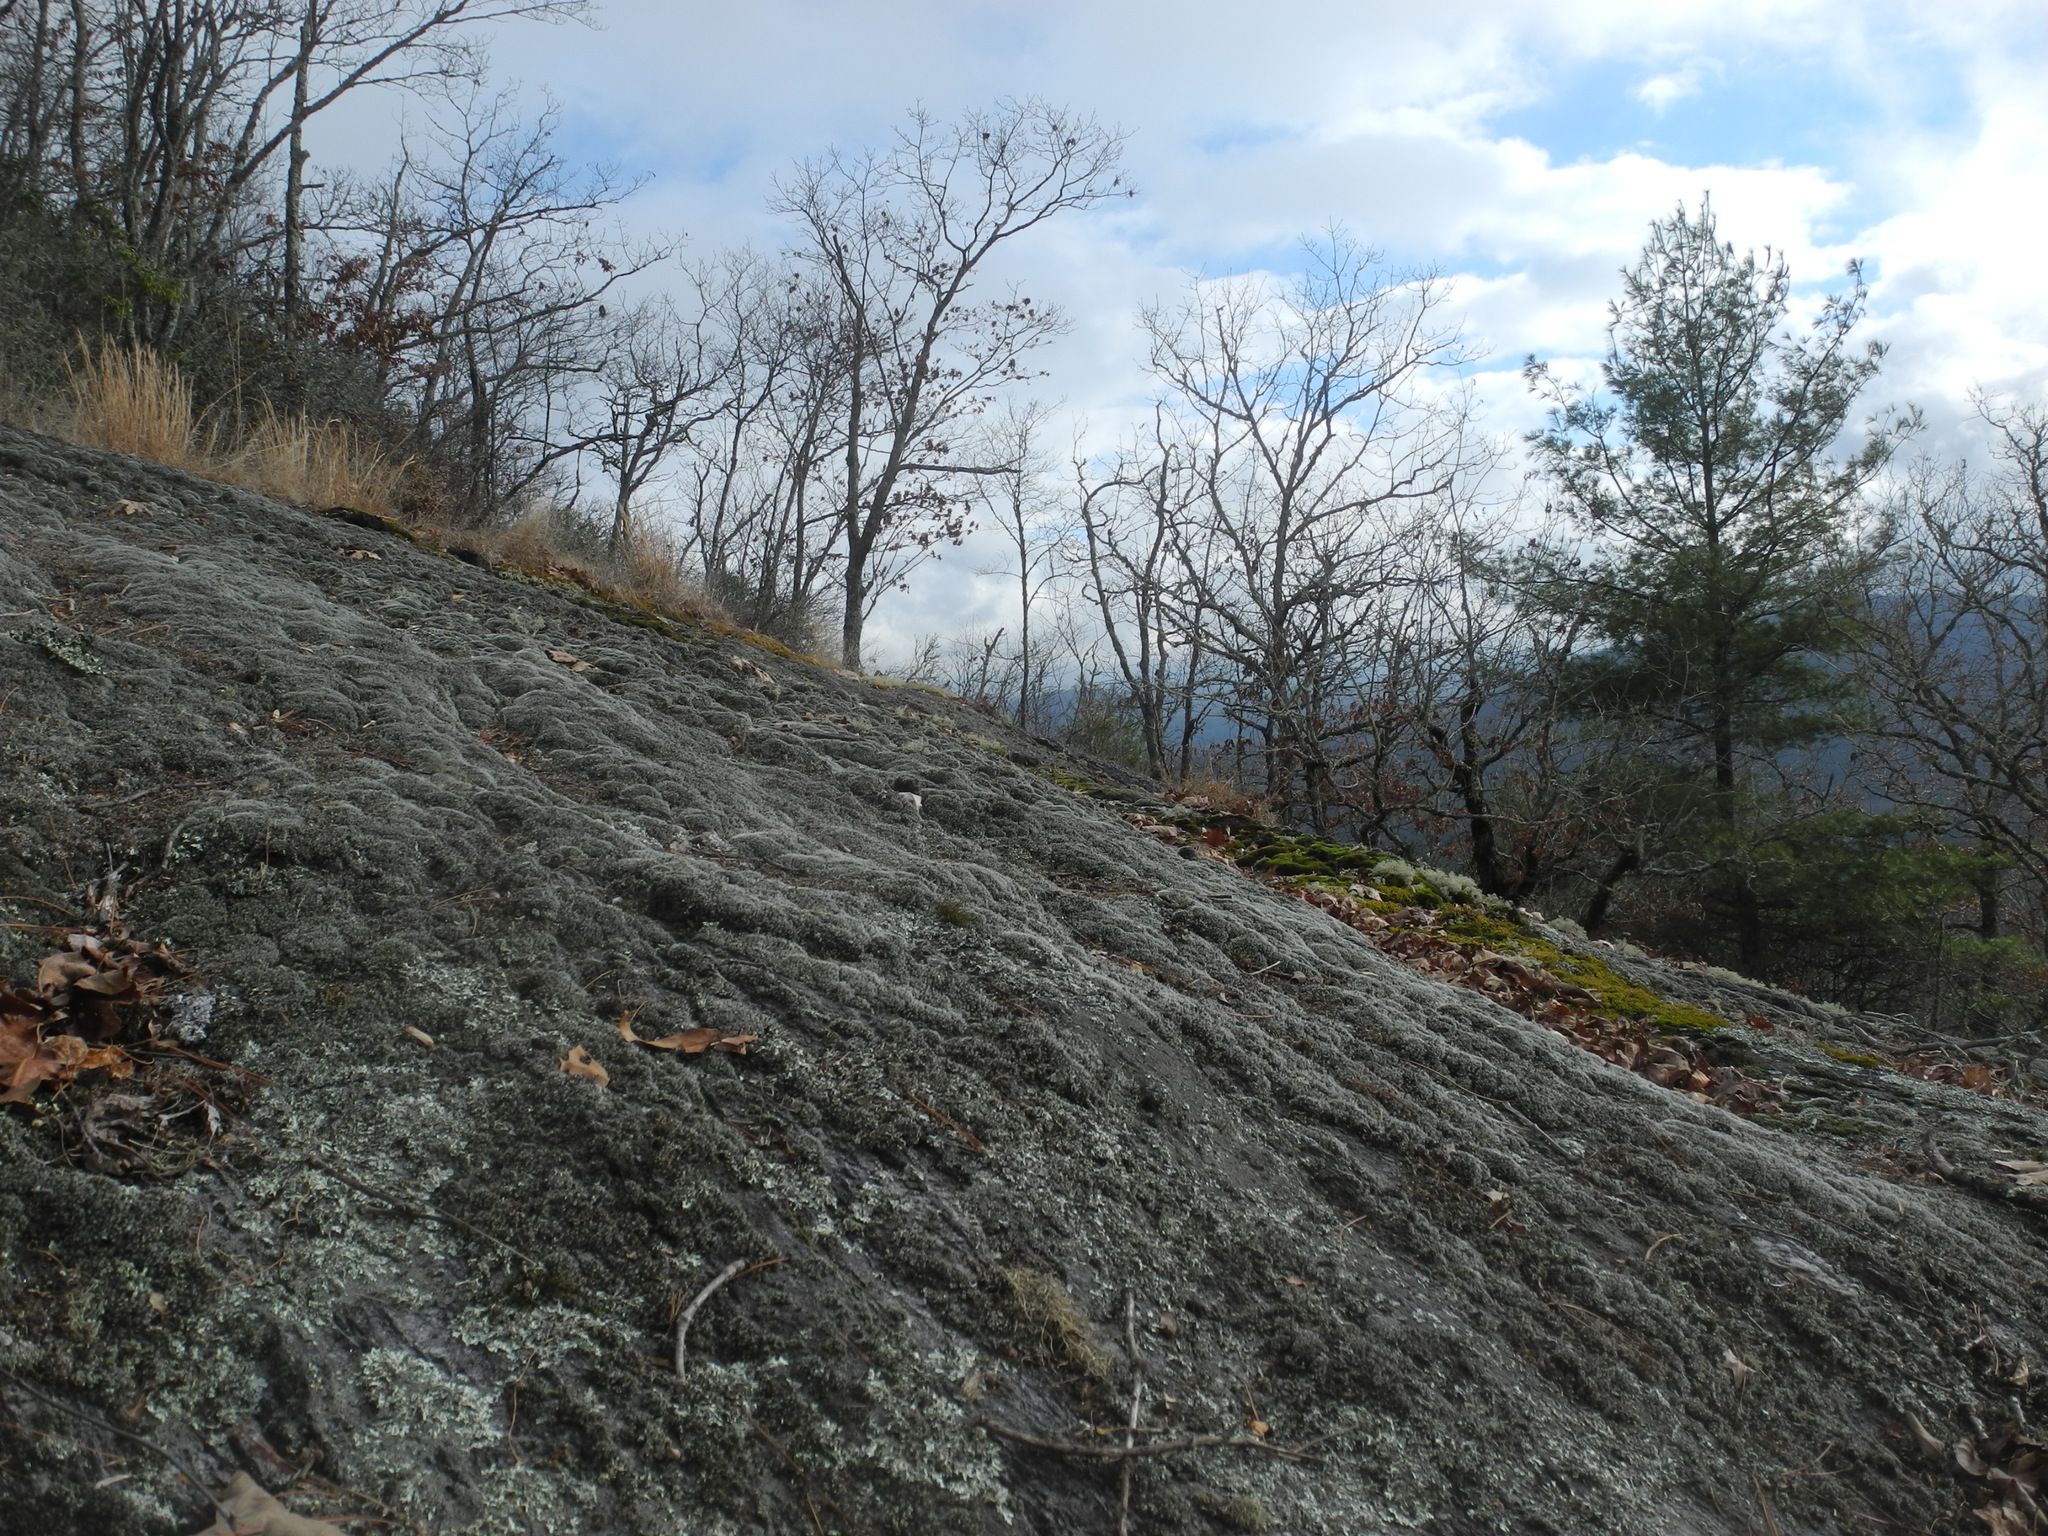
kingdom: Plantae
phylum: Bryophyta
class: Bryopsida
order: Grimmiales
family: Grimmiaceae
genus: Grimmia
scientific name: Grimmia laevigata
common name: Hoary grimmia
